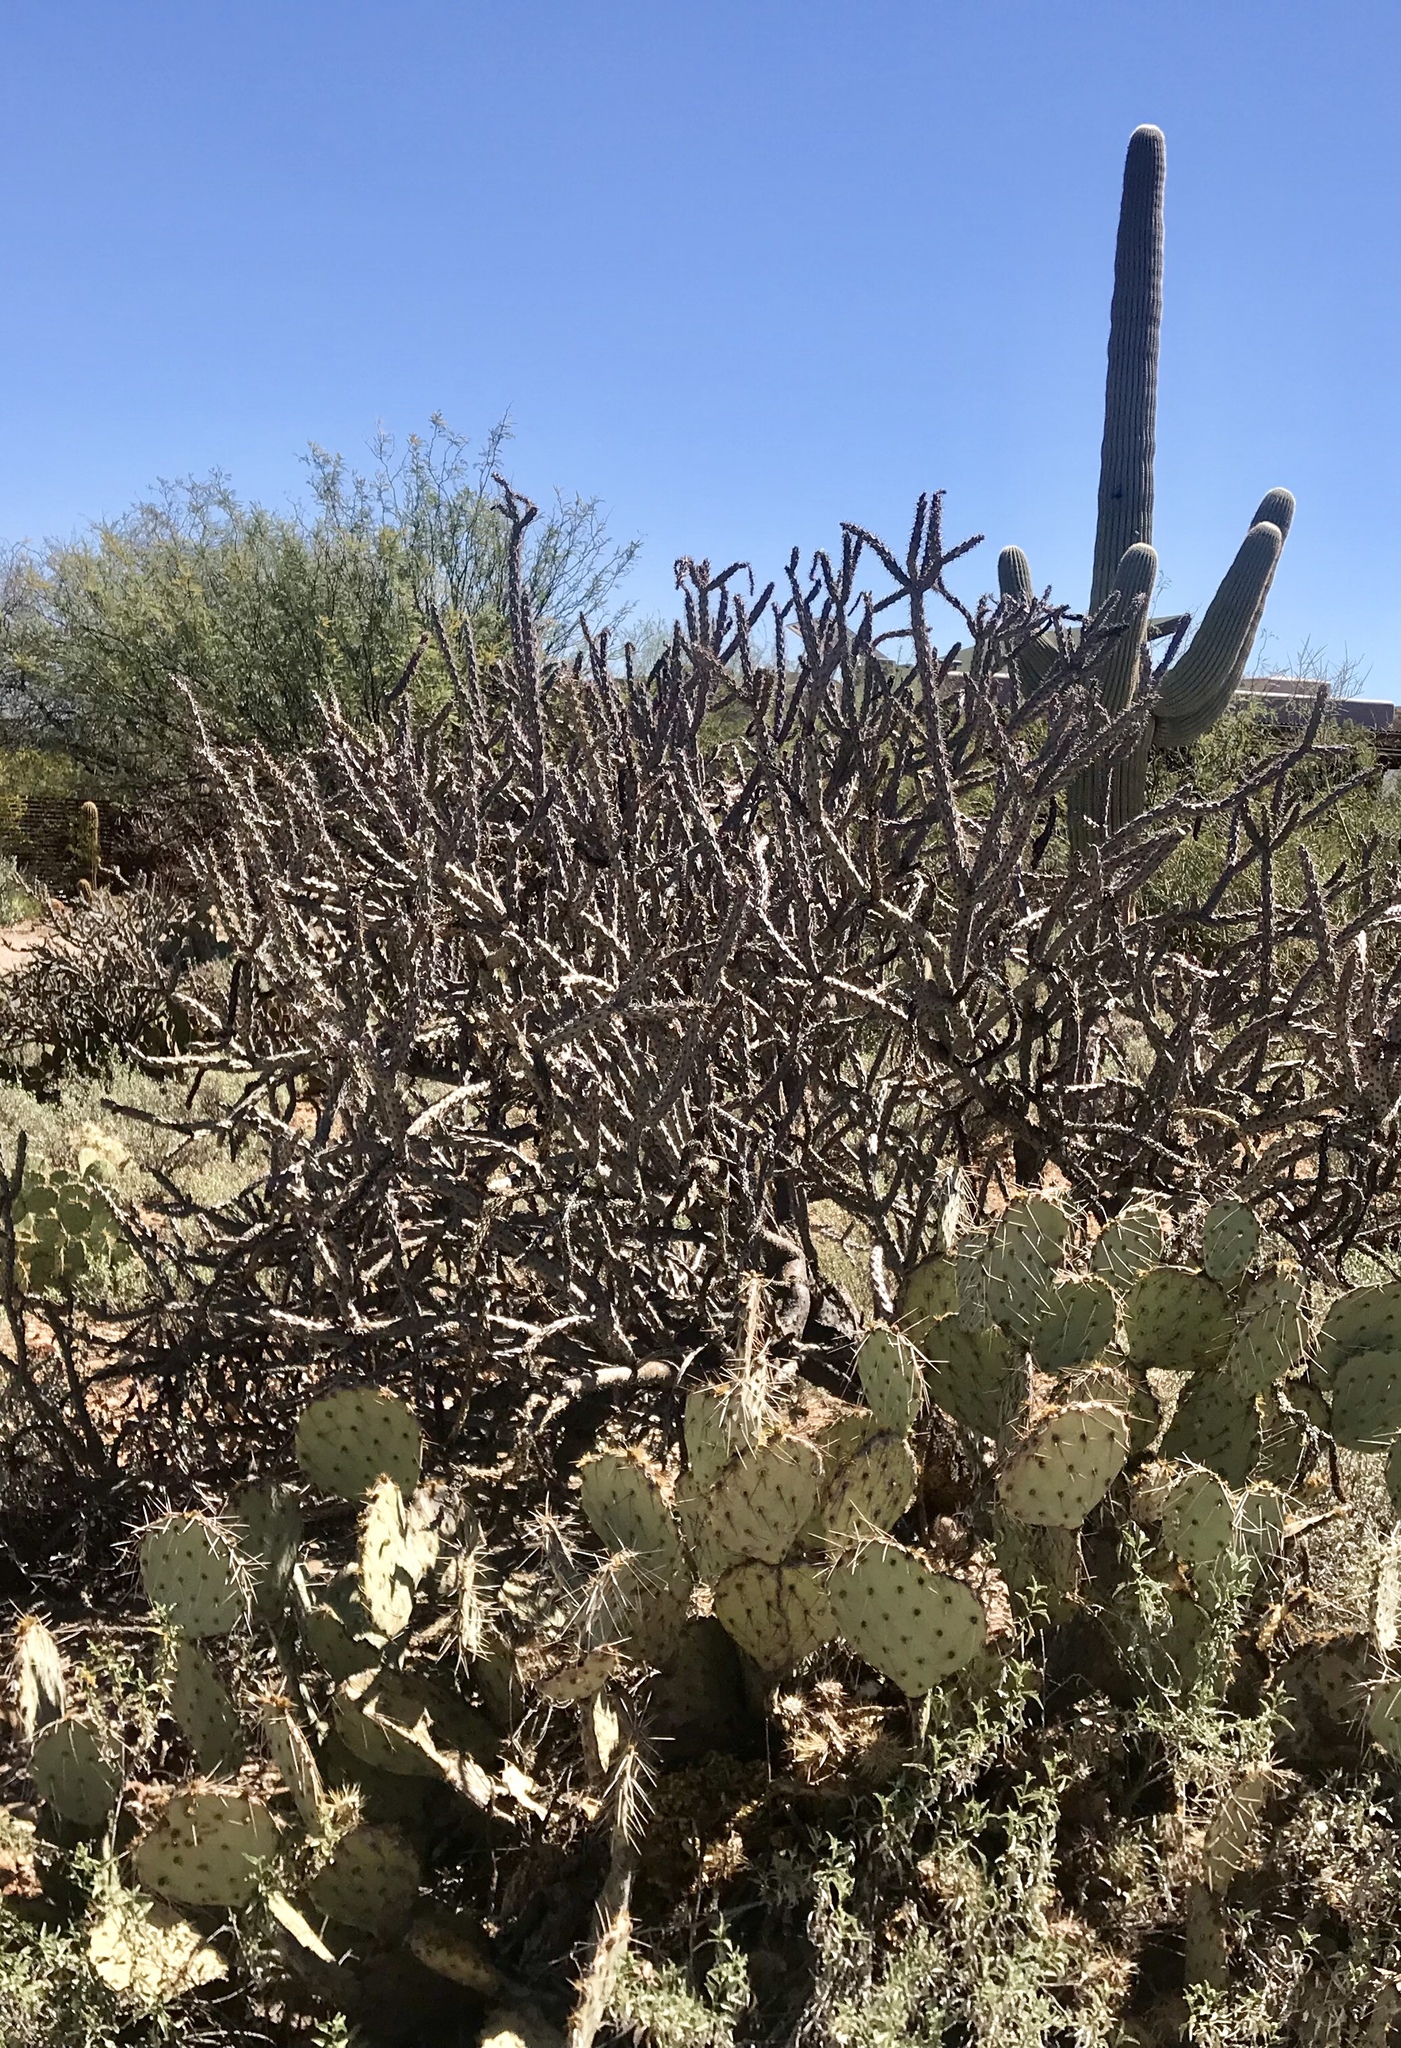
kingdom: Plantae
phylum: Tracheophyta
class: Magnoliopsida
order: Caryophyllales
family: Cactaceae
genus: Cylindropuntia
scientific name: Cylindropuntia acanthocarpa
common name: Buckhorn cholla
